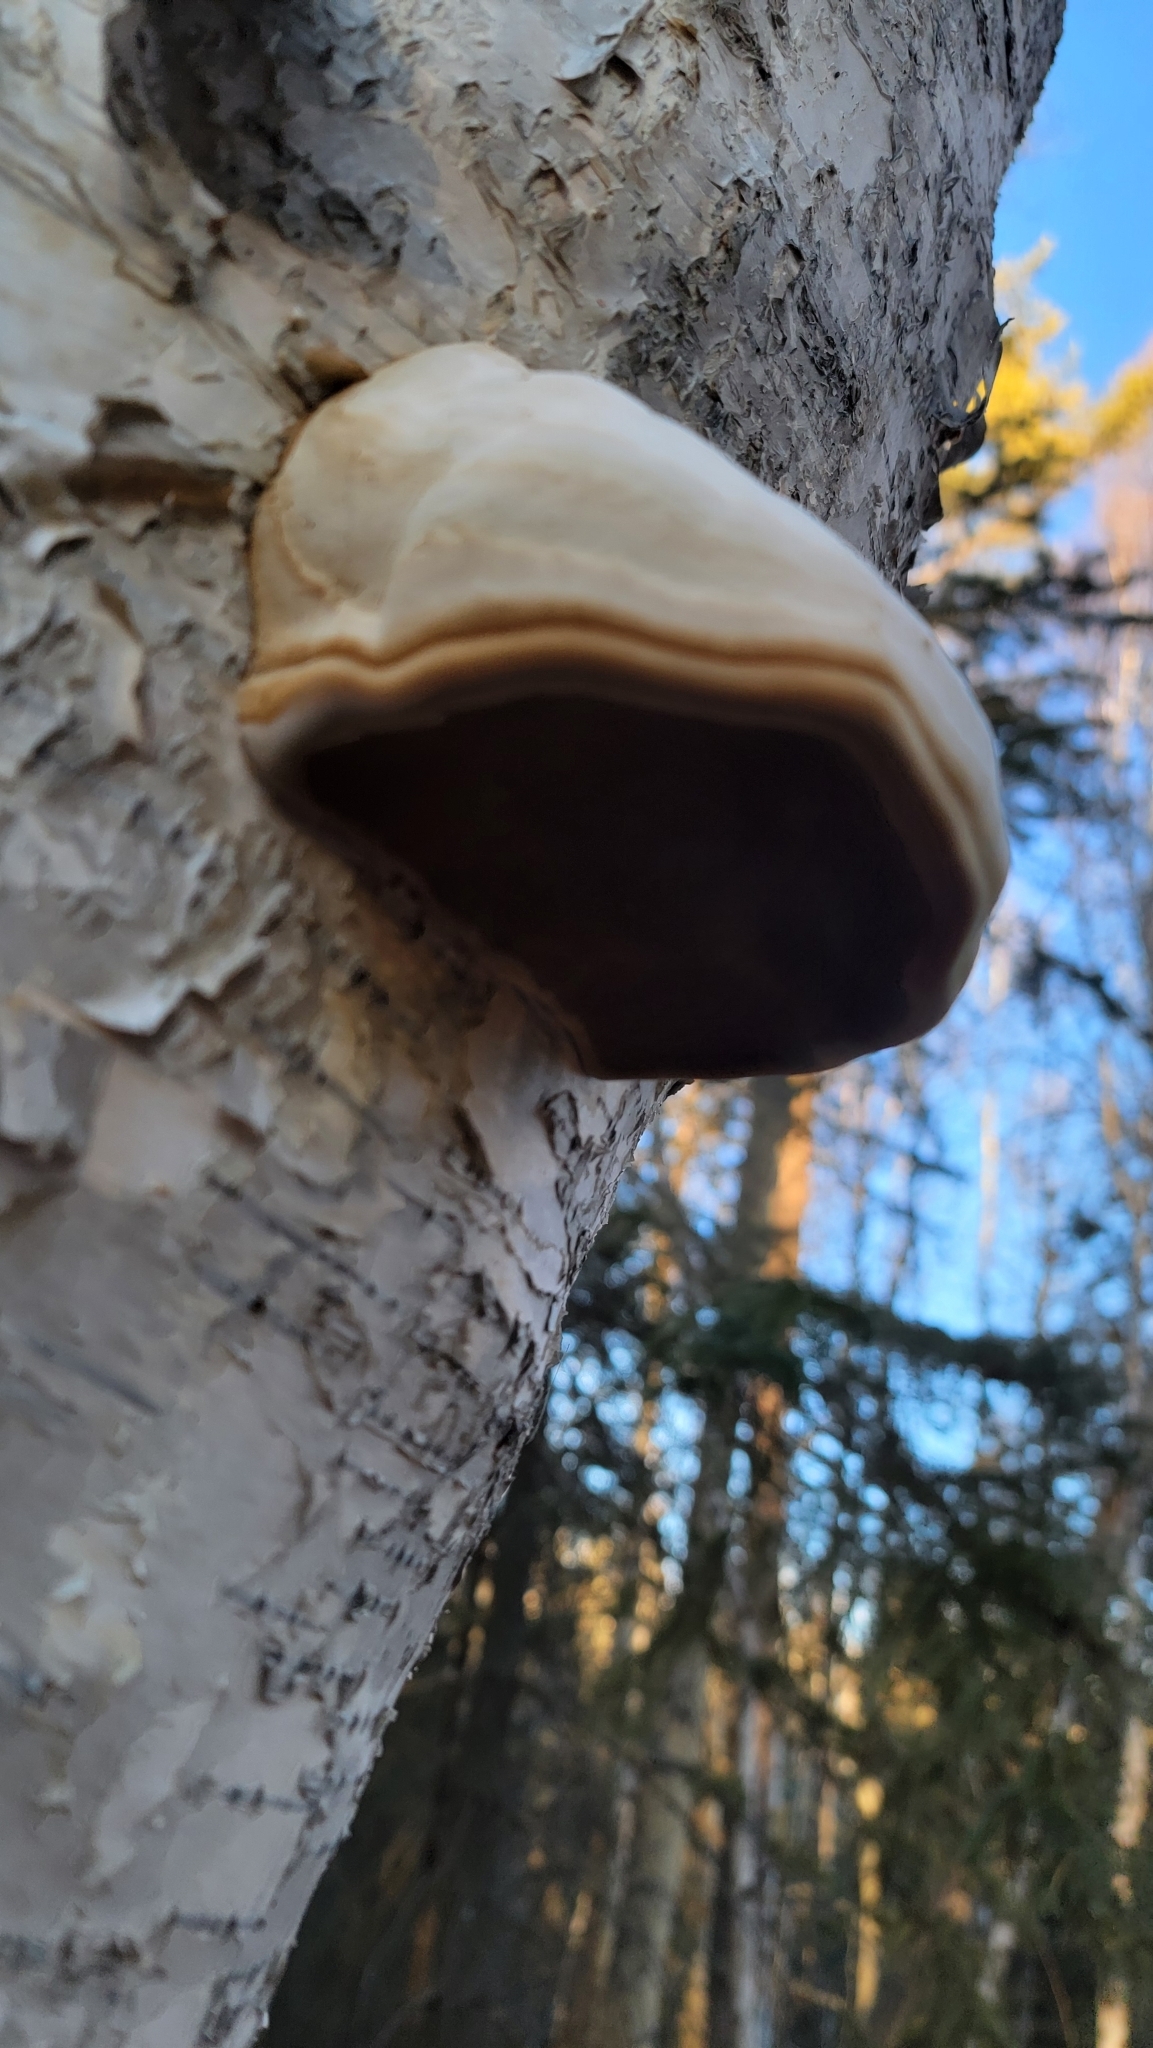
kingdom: Fungi
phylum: Basidiomycota
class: Agaricomycetes
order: Polyporales
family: Polyporaceae
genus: Fomes
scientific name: Fomes fomentarius
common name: Hoof fungus
